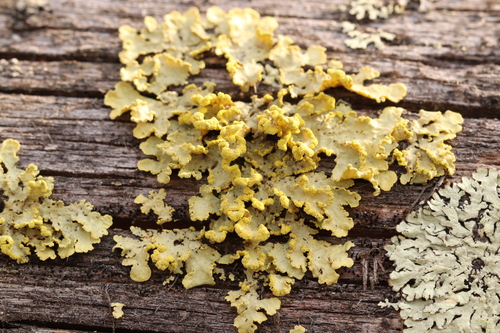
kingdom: Fungi
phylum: Ascomycota
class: Lecanoromycetes
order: Lecanorales
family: Parmeliaceae
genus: Vulpicida
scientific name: Vulpicida pinastri
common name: Powdered sunshine lichen
